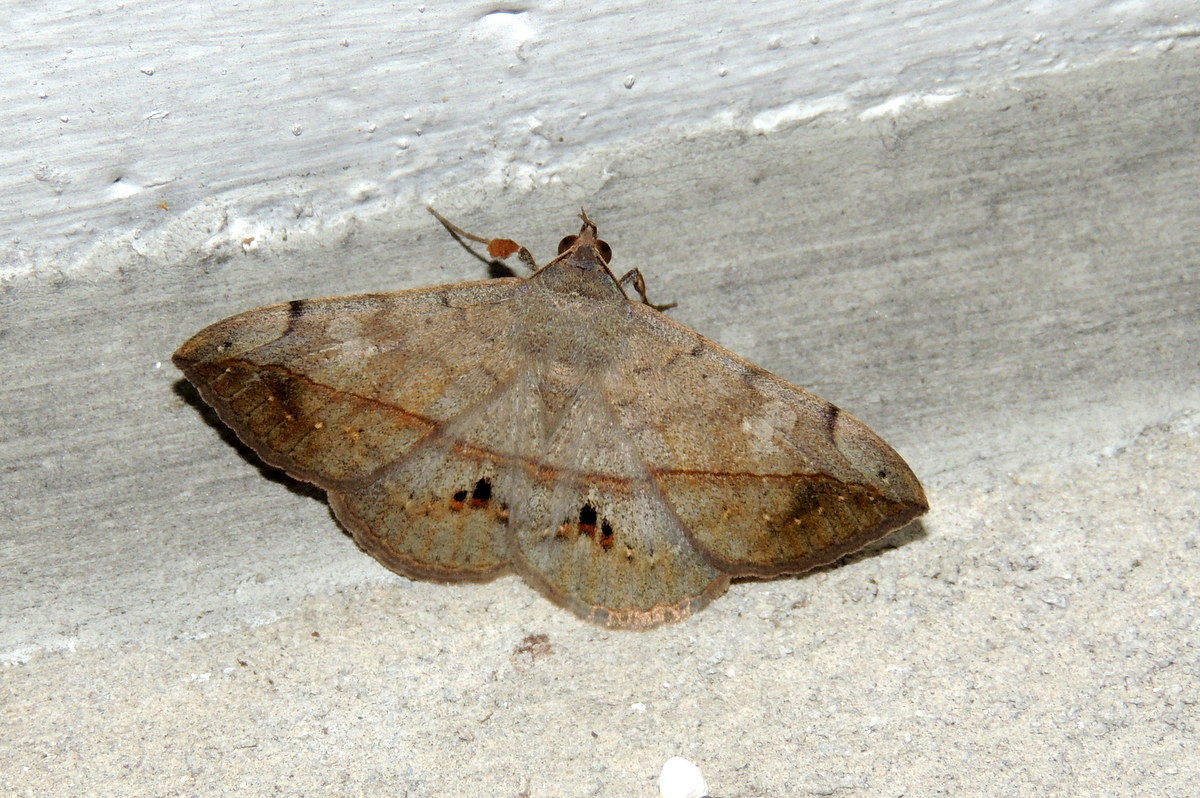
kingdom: Animalia
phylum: Arthropoda
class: Insecta
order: Lepidoptera
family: Erebidae
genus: Anticarsia
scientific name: Anticarsia gemmatalis
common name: Cutworm moth
